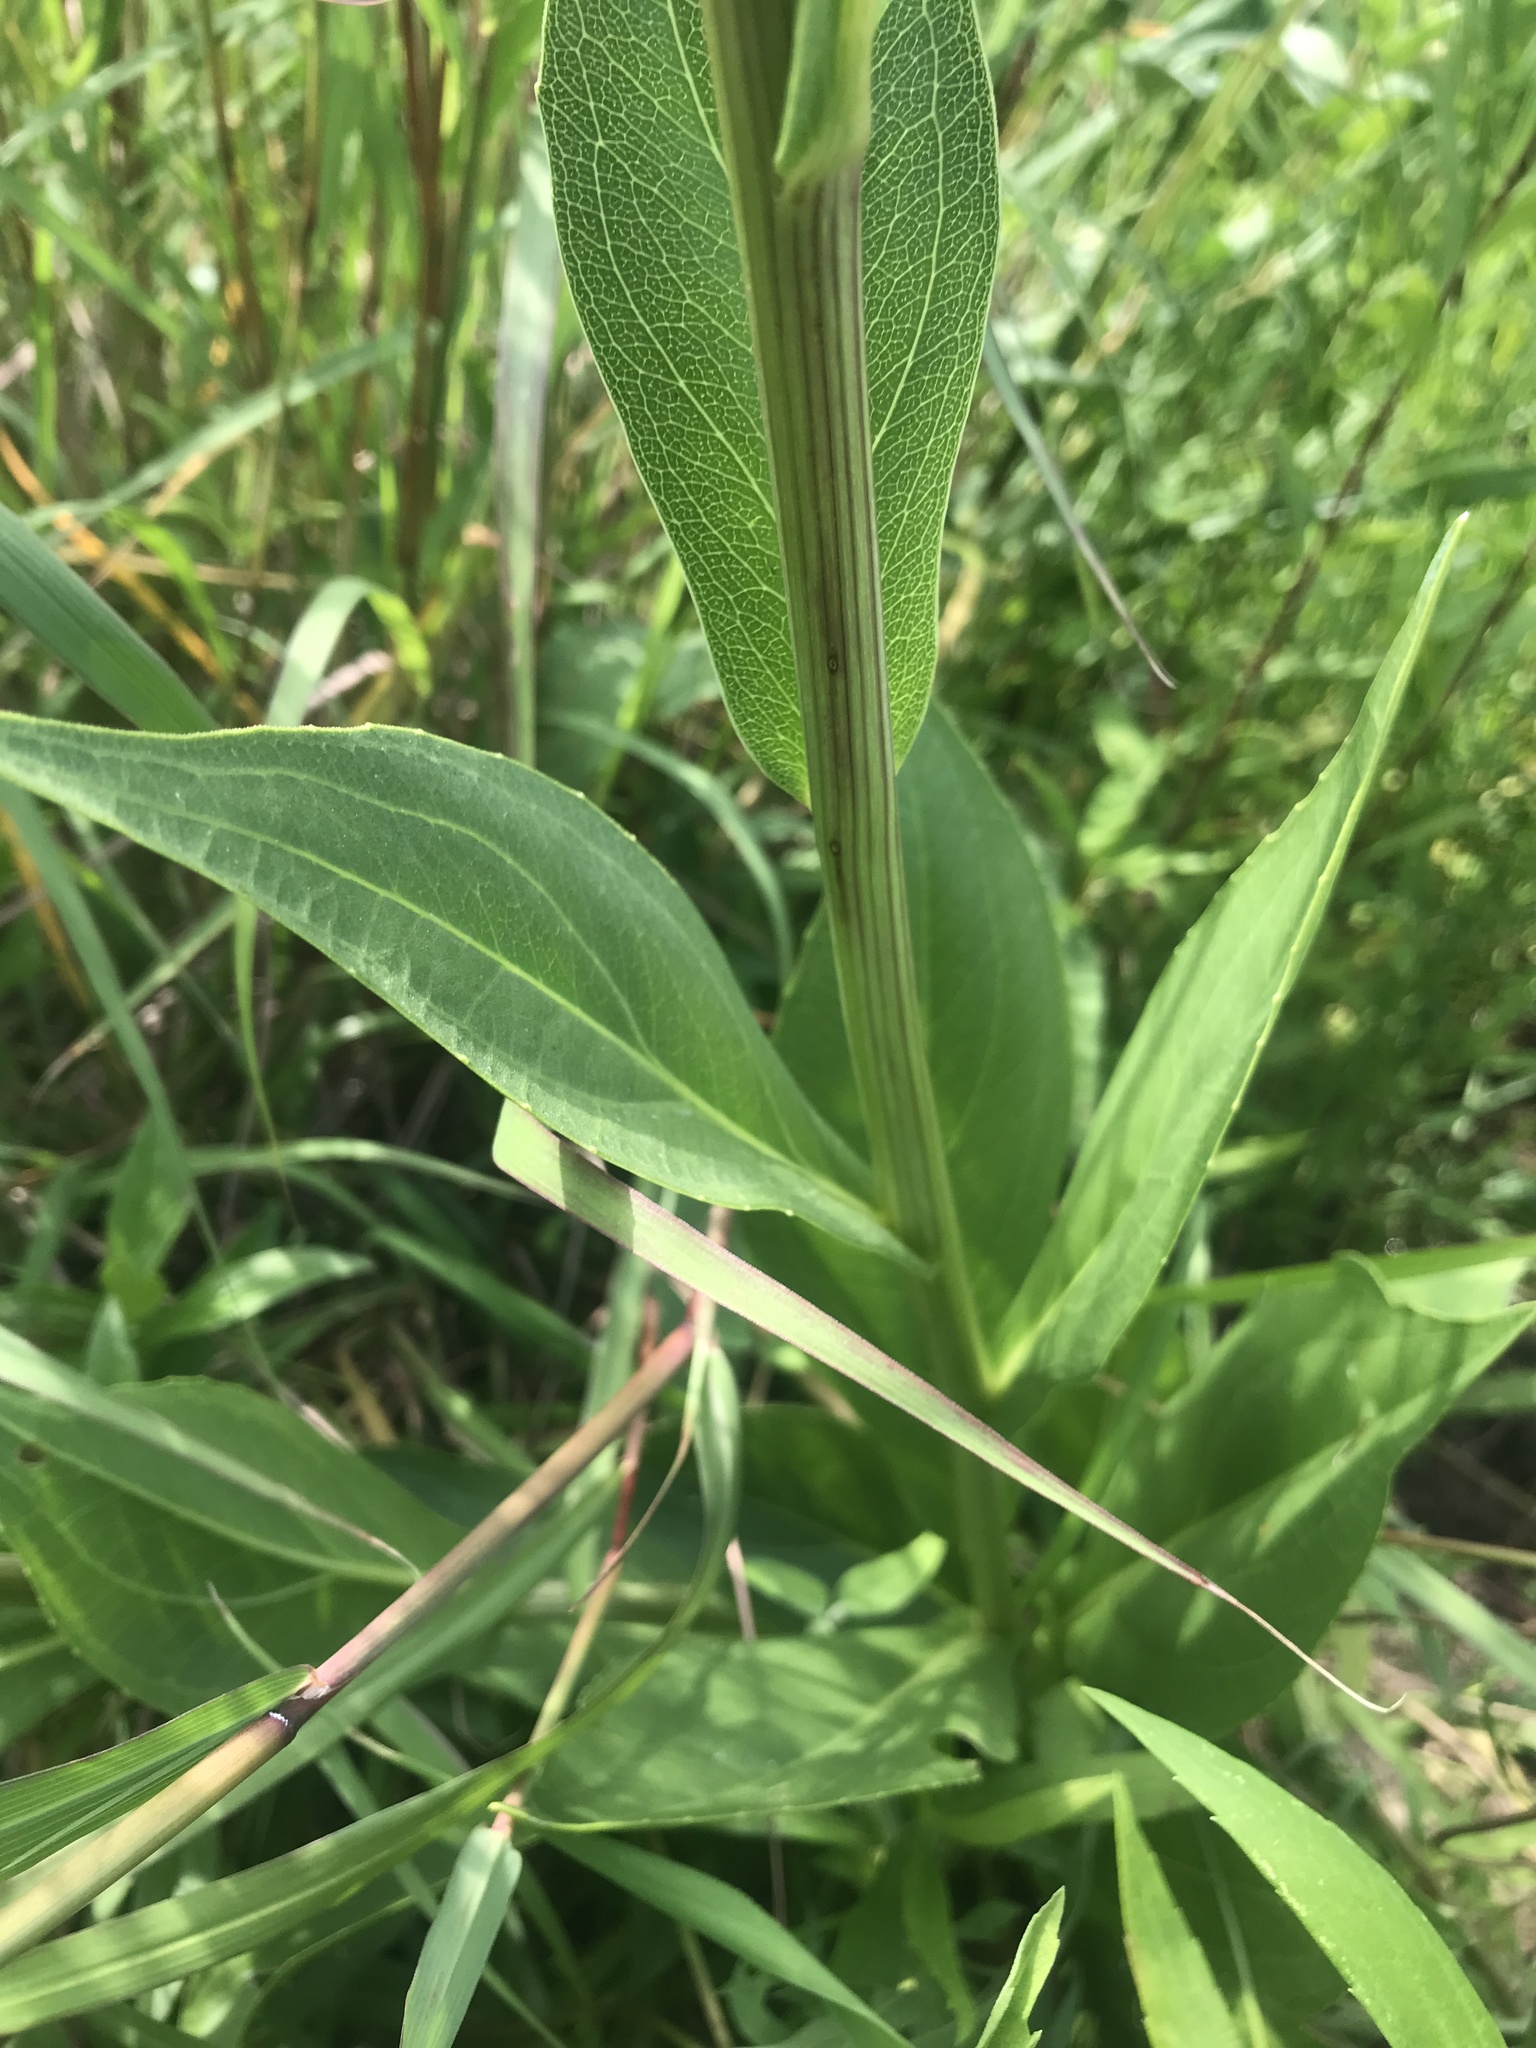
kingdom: Plantae
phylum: Tracheophyta
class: Magnoliopsida
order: Asterales
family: Asteraceae
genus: Rudbeckia
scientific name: Rudbeckia texana
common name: Texas coneflower
